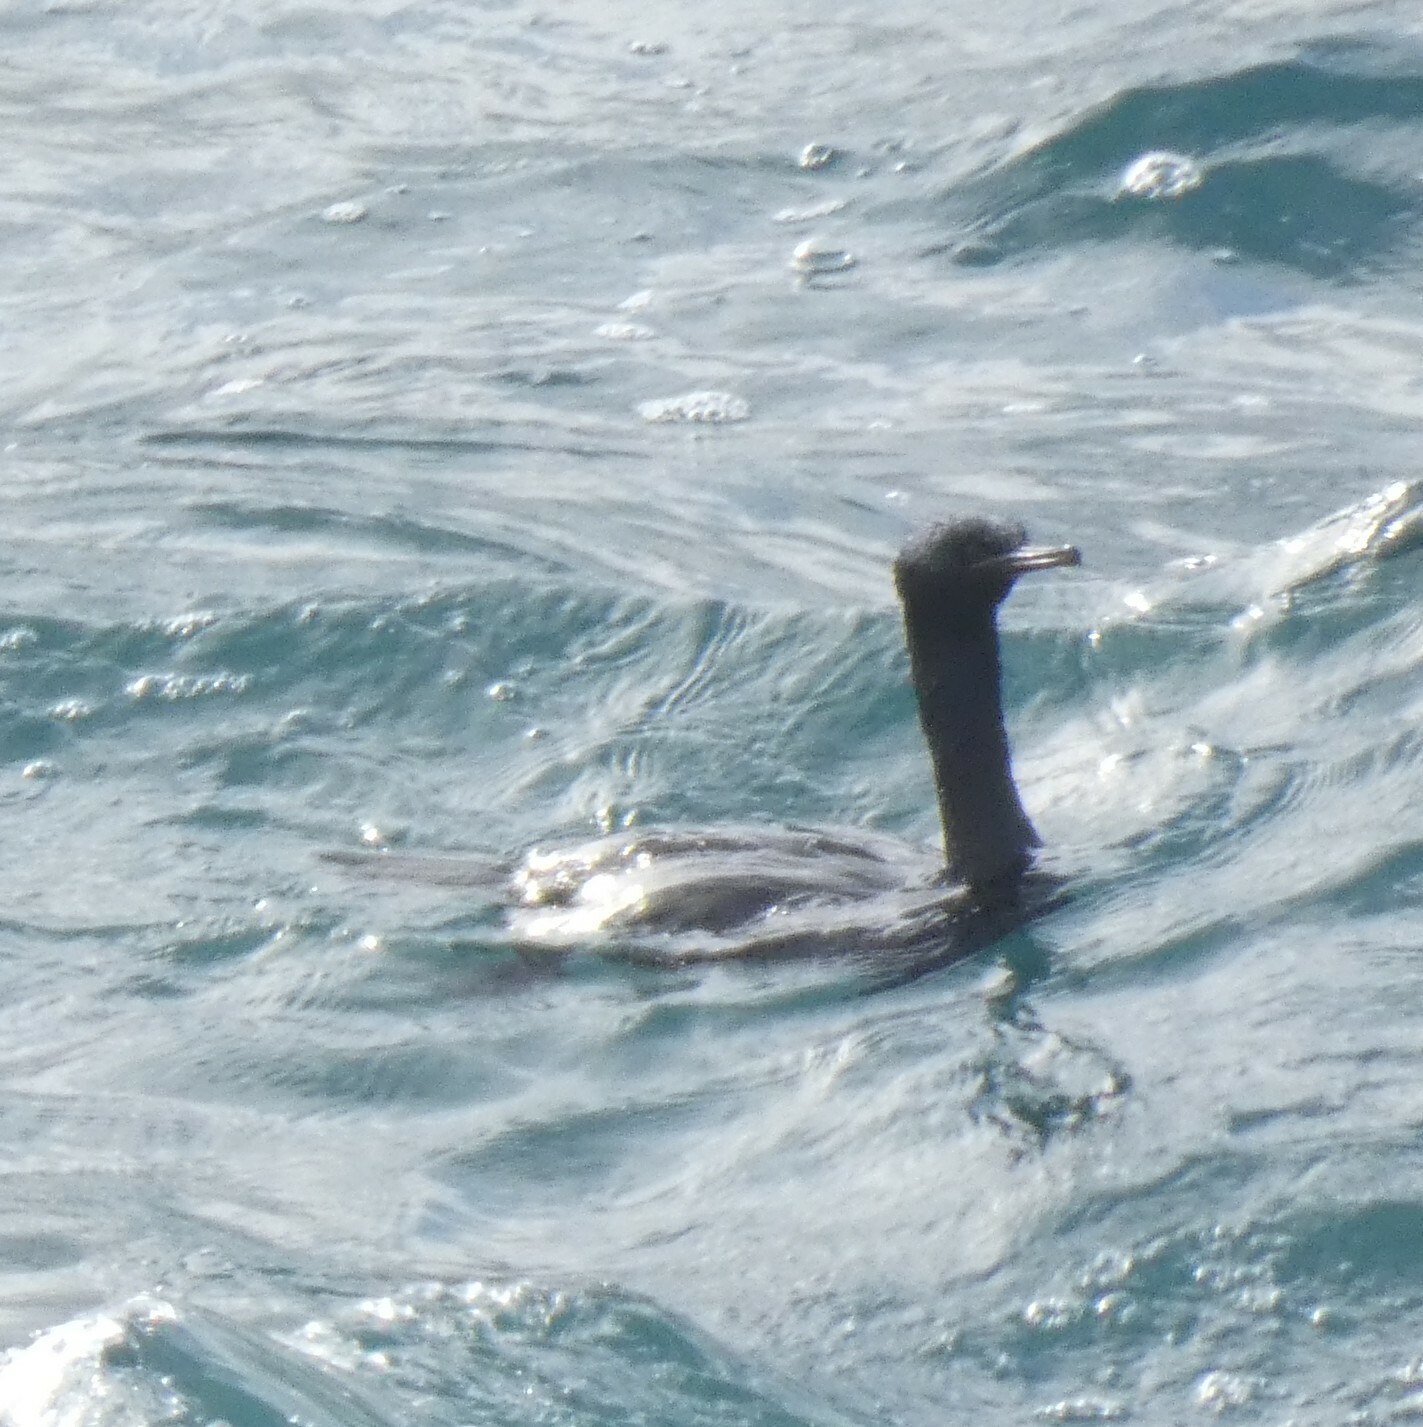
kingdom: Animalia
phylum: Chordata
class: Aves
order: Suliformes
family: Phalacrocoracidae
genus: Phalacrocorax
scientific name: Phalacrocorax pelagicus
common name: Pelagic cormorant
